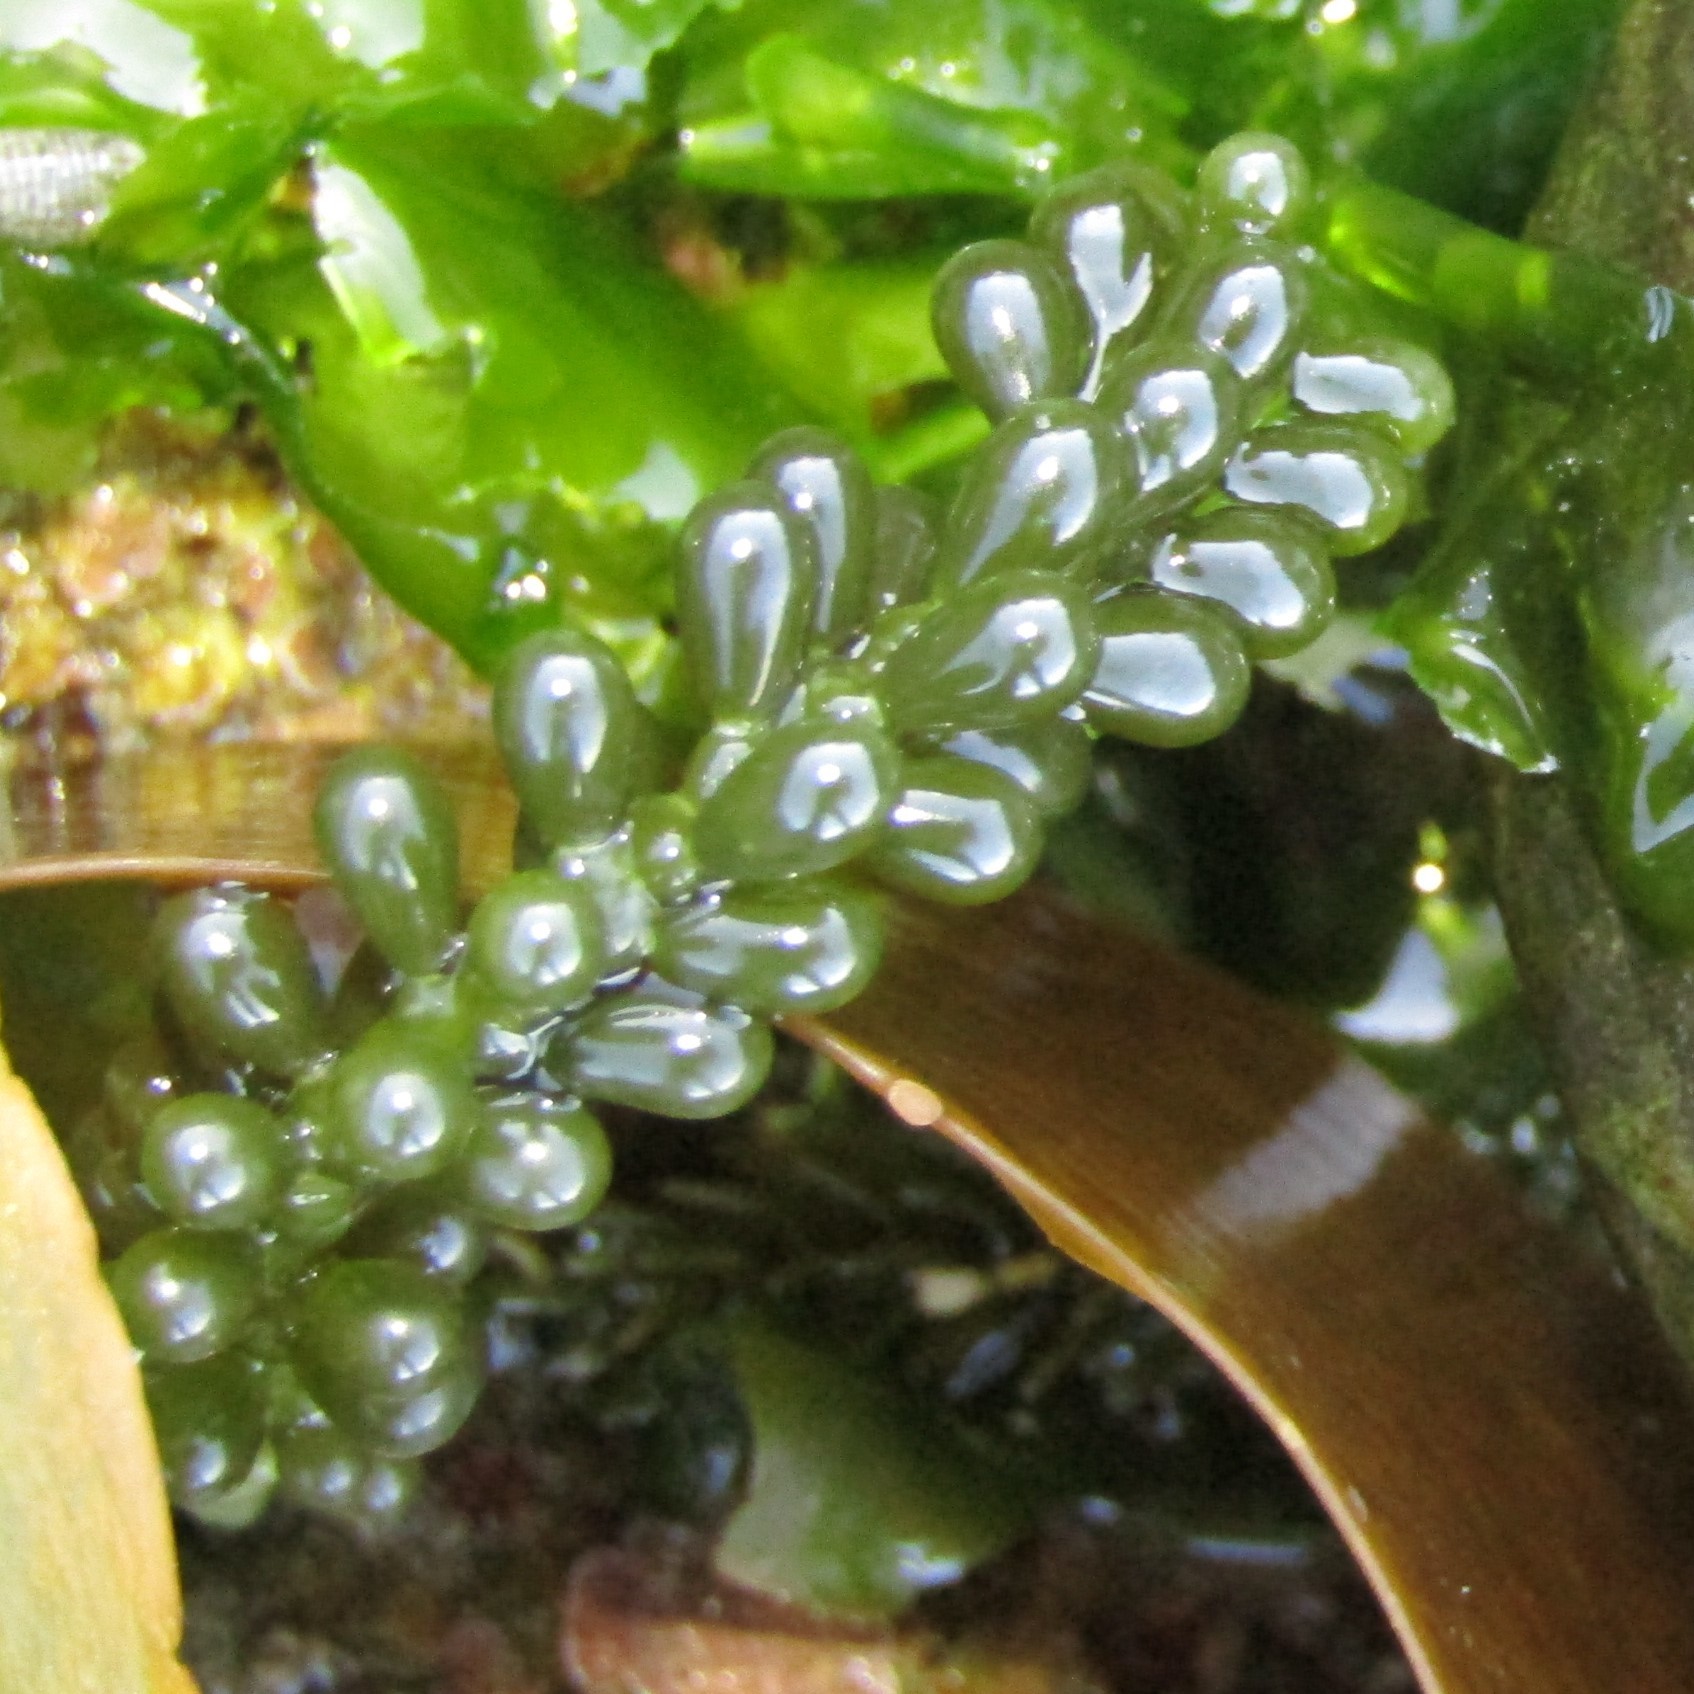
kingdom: Plantae
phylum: Chlorophyta
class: Ulvophyceae
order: Bryopsidales
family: Caulerpaceae
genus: Caulerpa
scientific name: Caulerpa geminata
